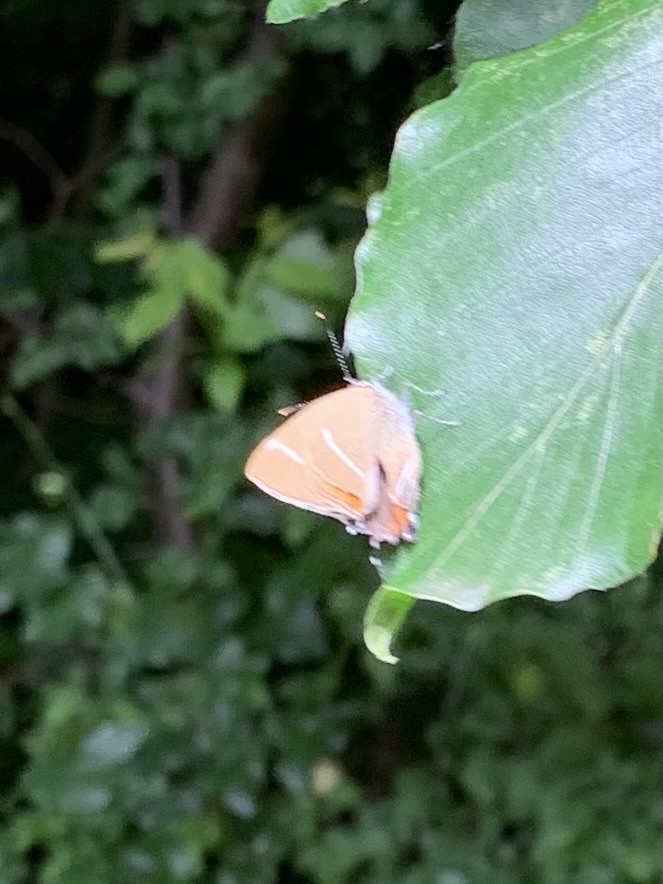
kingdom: Animalia
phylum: Arthropoda
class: Insecta
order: Lepidoptera
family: Lycaenidae
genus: Satyrium
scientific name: Satyrium w-album
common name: White-letter hairstreak
